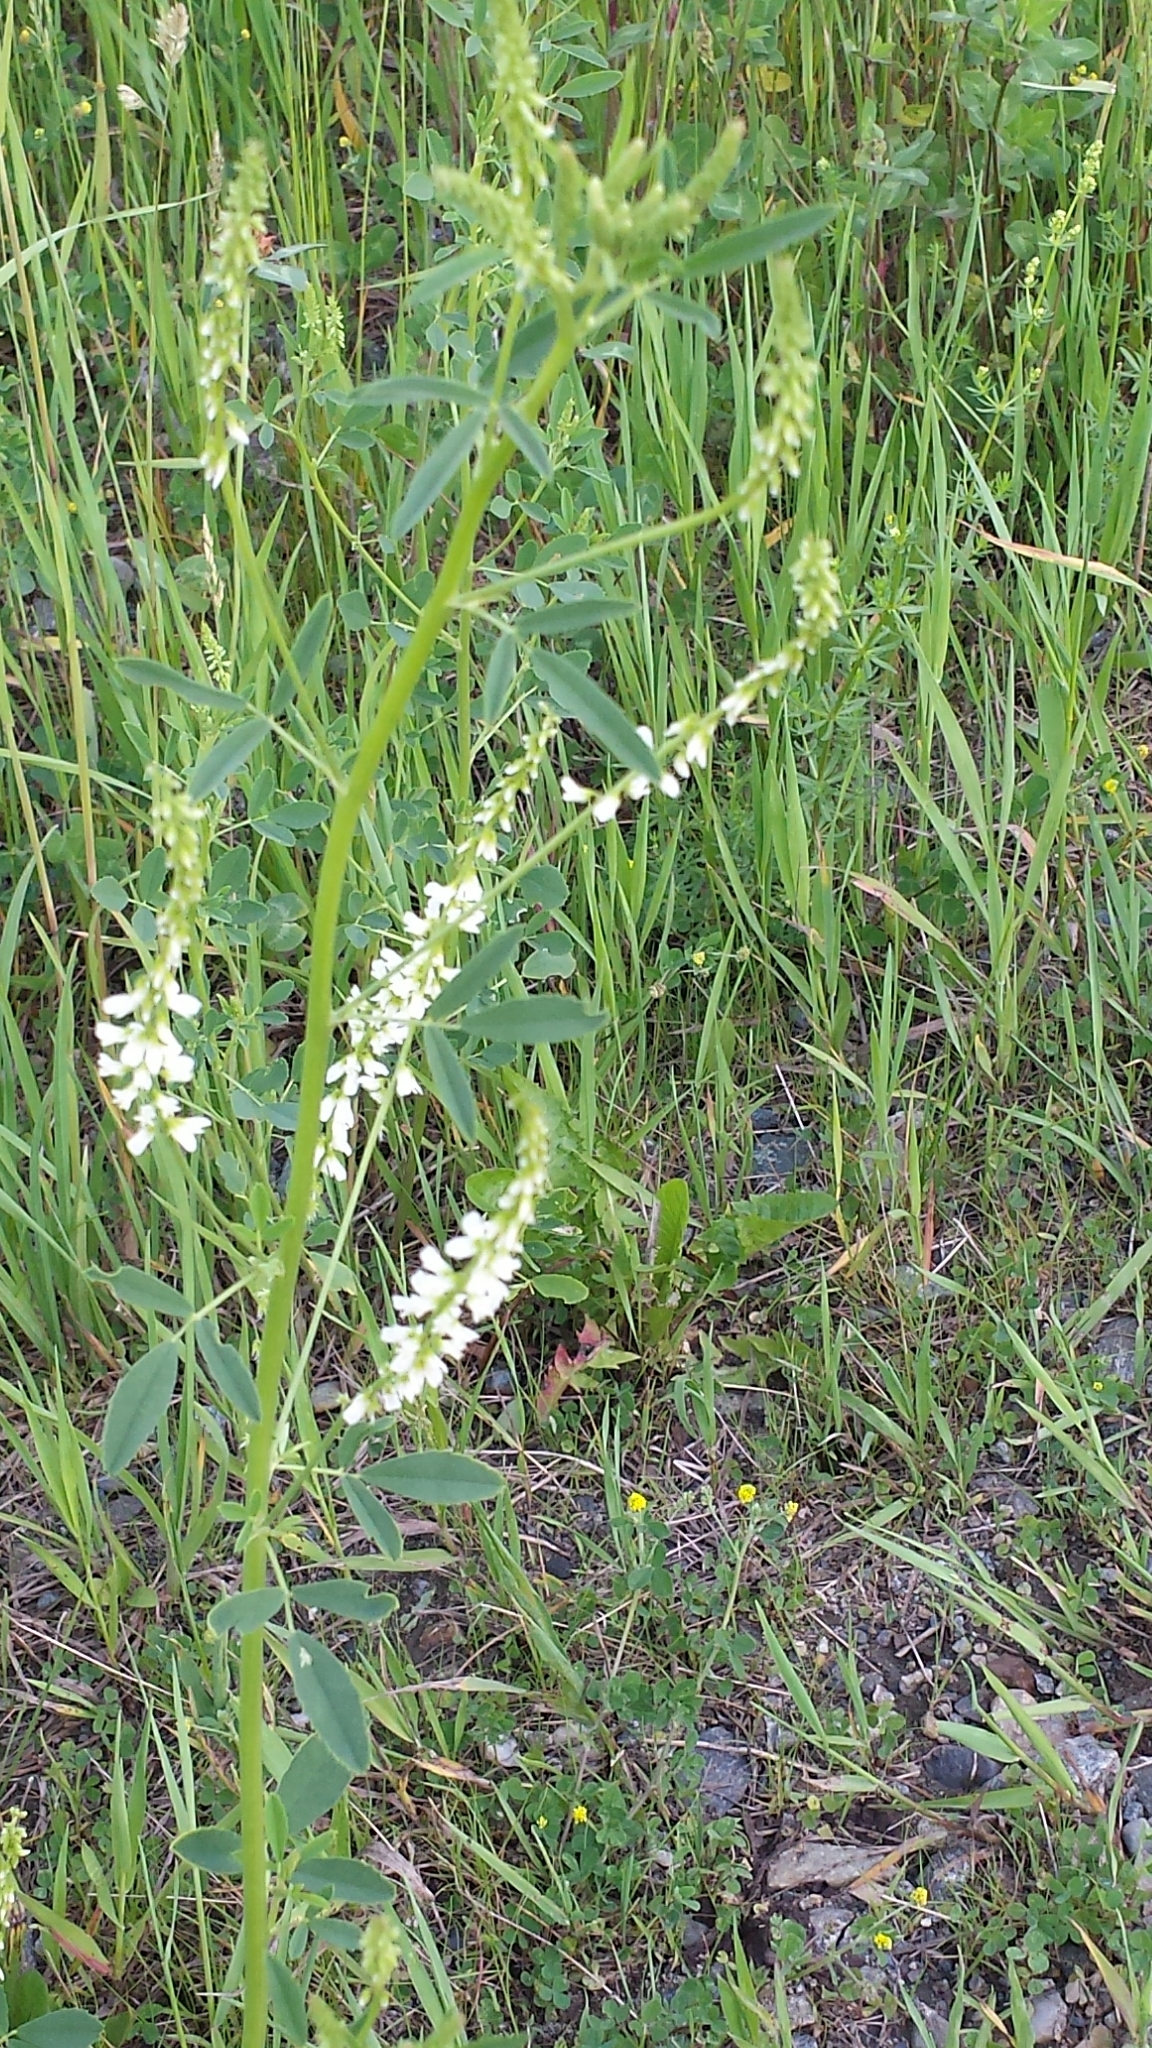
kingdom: Plantae
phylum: Tracheophyta
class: Magnoliopsida
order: Fabales
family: Fabaceae
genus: Melilotus
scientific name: Melilotus albus
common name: White melilot
